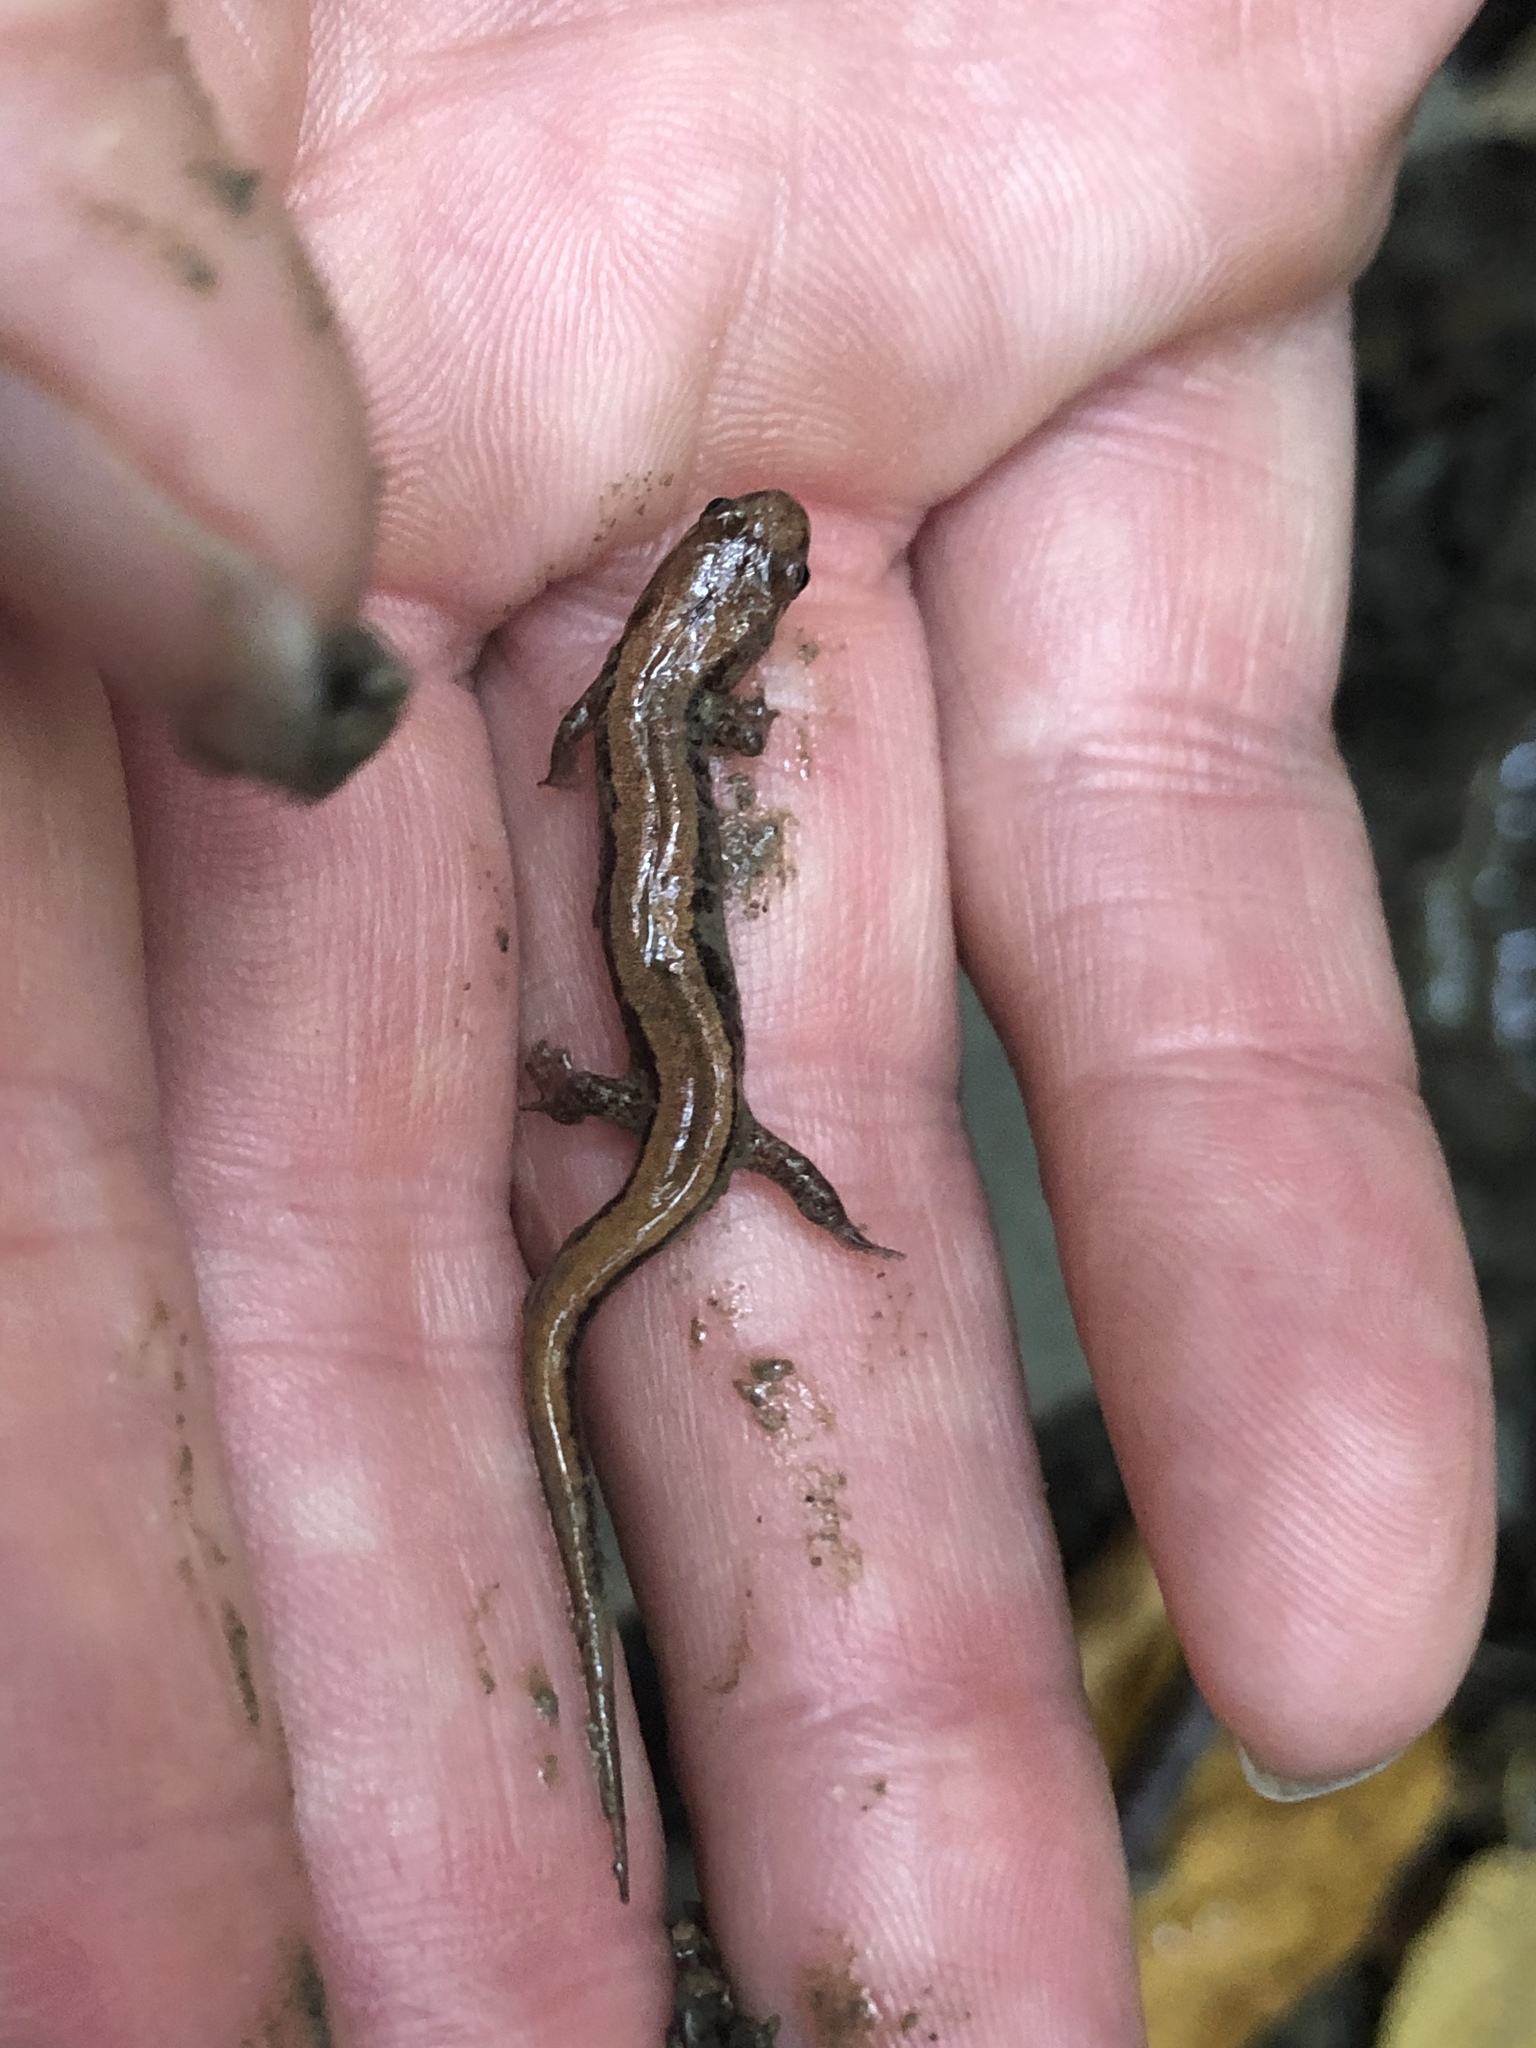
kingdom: Animalia
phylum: Chordata
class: Amphibia
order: Caudata
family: Plethodontidae
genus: Desmognathus
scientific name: Desmognathus ochrophaeus
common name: Allegheny mountain dusky salamander
